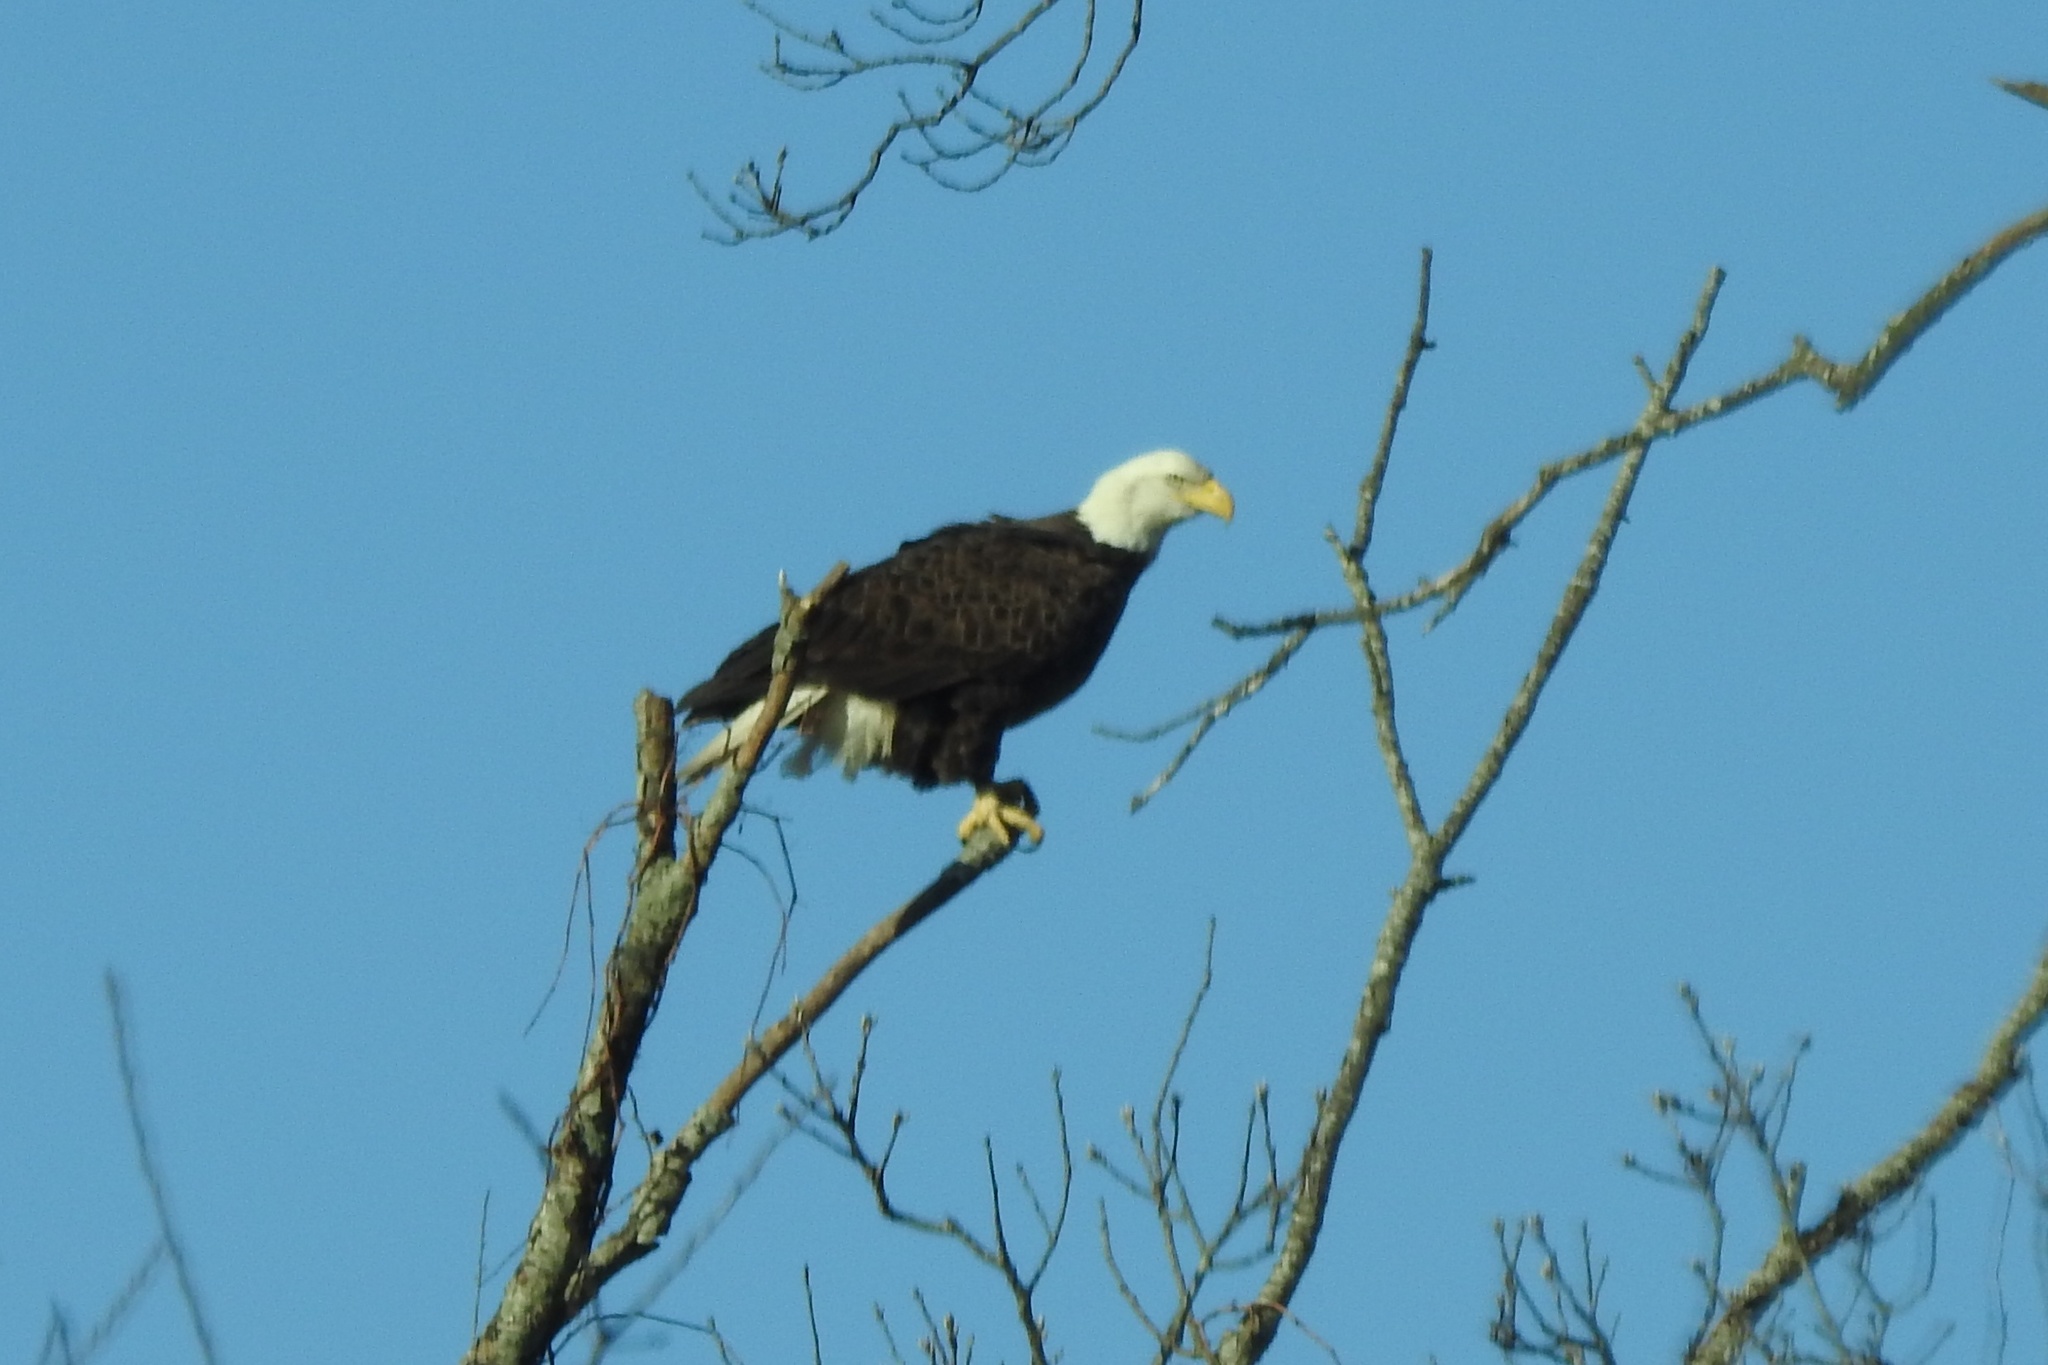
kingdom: Animalia
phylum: Chordata
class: Aves
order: Accipitriformes
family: Accipitridae
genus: Haliaeetus
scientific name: Haliaeetus leucocephalus
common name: Bald eagle
